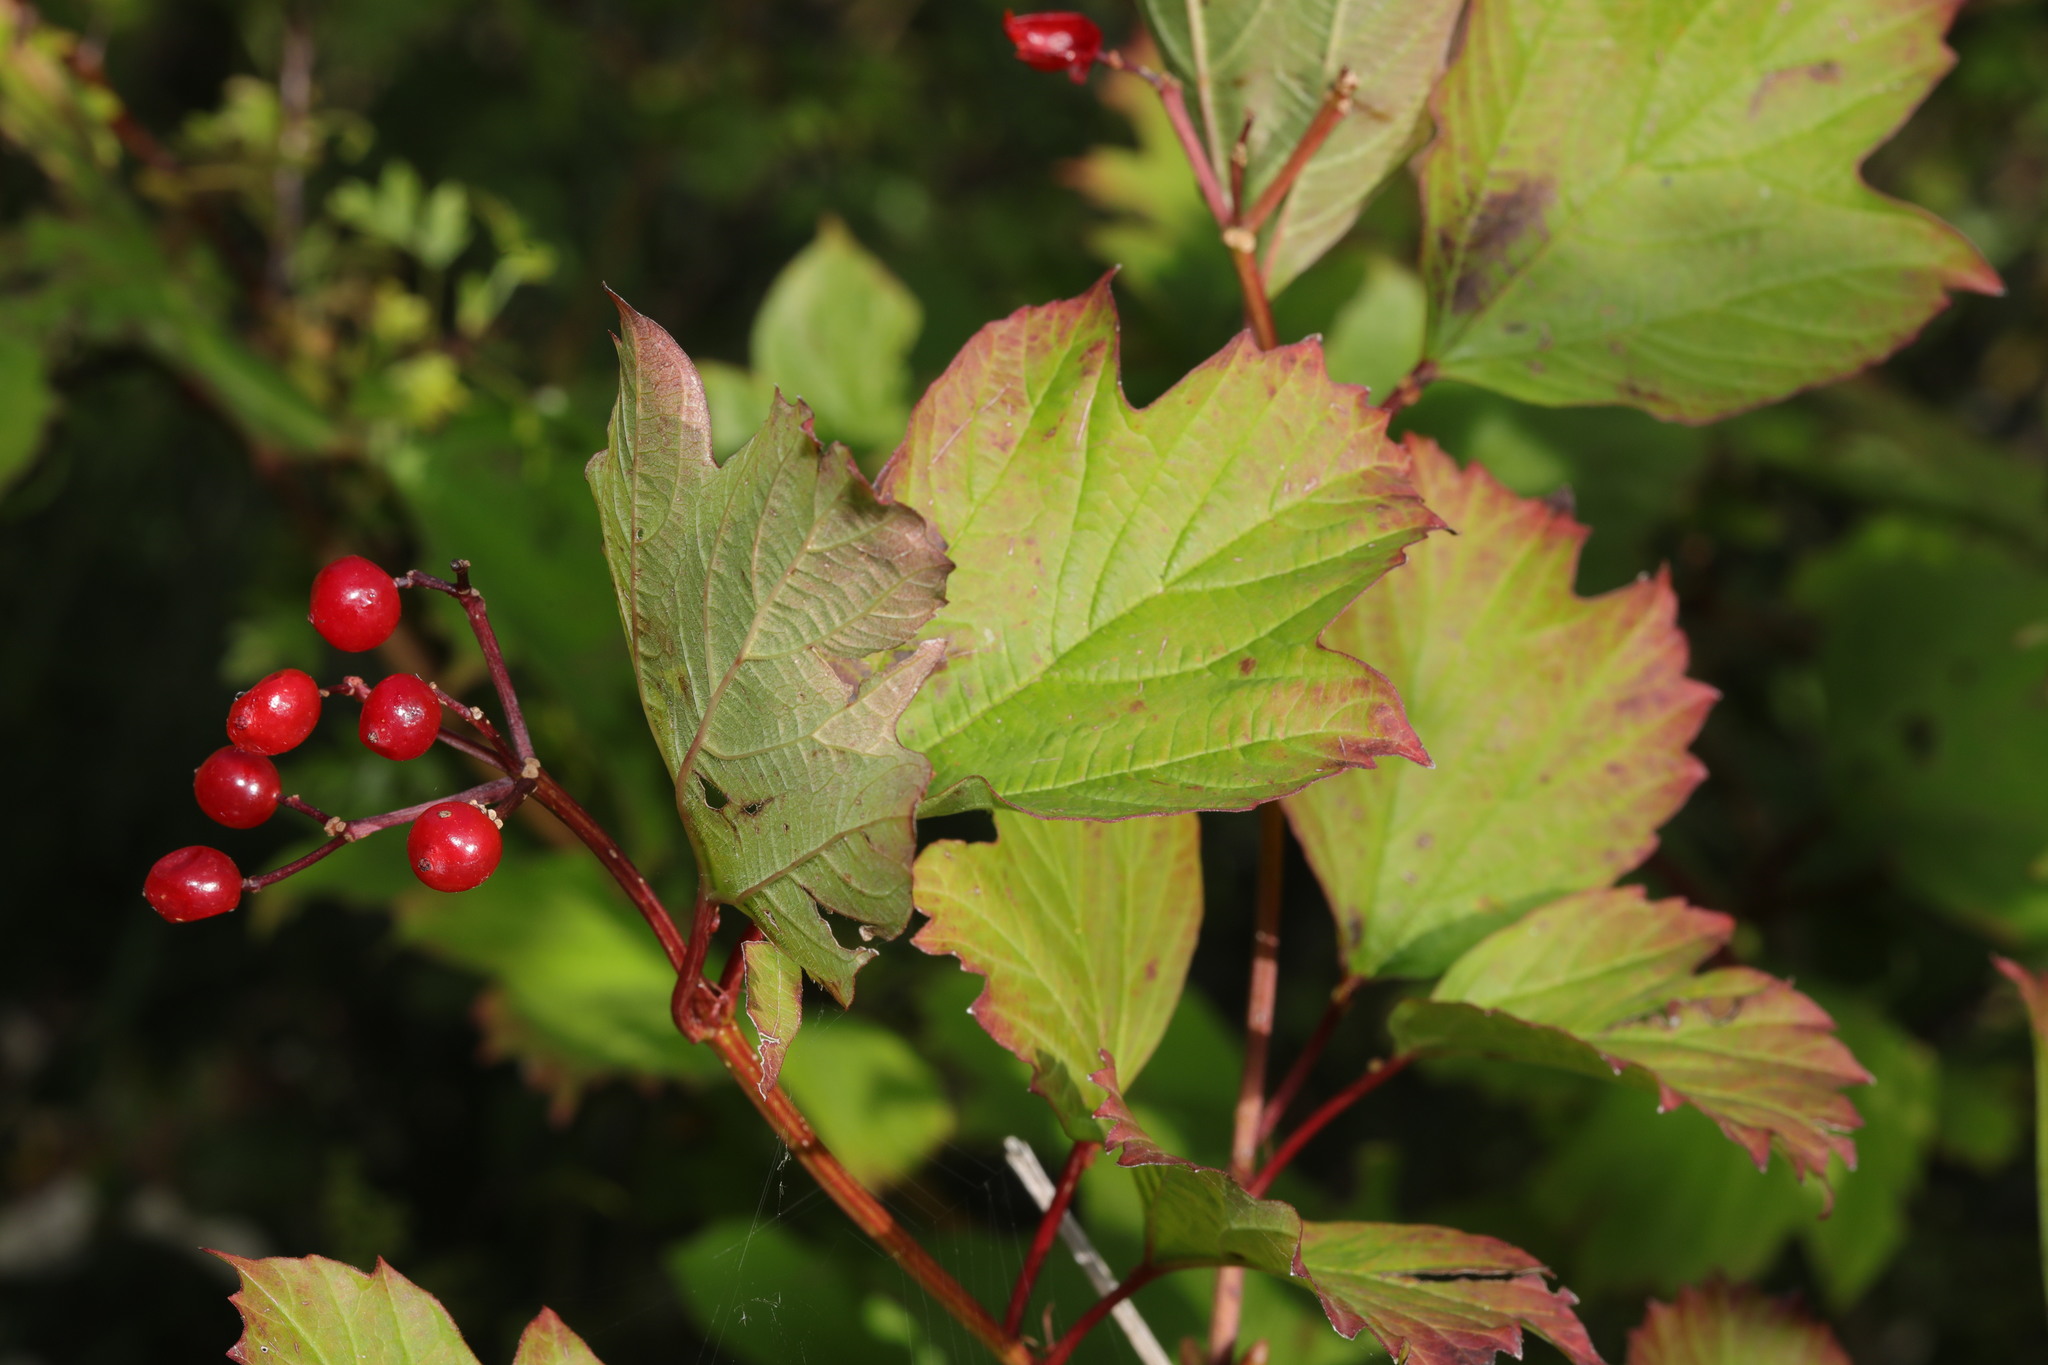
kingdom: Plantae
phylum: Tracheophyta
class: Magnoliopsida
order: Dipsacales
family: Viburnaceae
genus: Viburnum
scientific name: Viburnum opulus
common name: Guelder-rose
